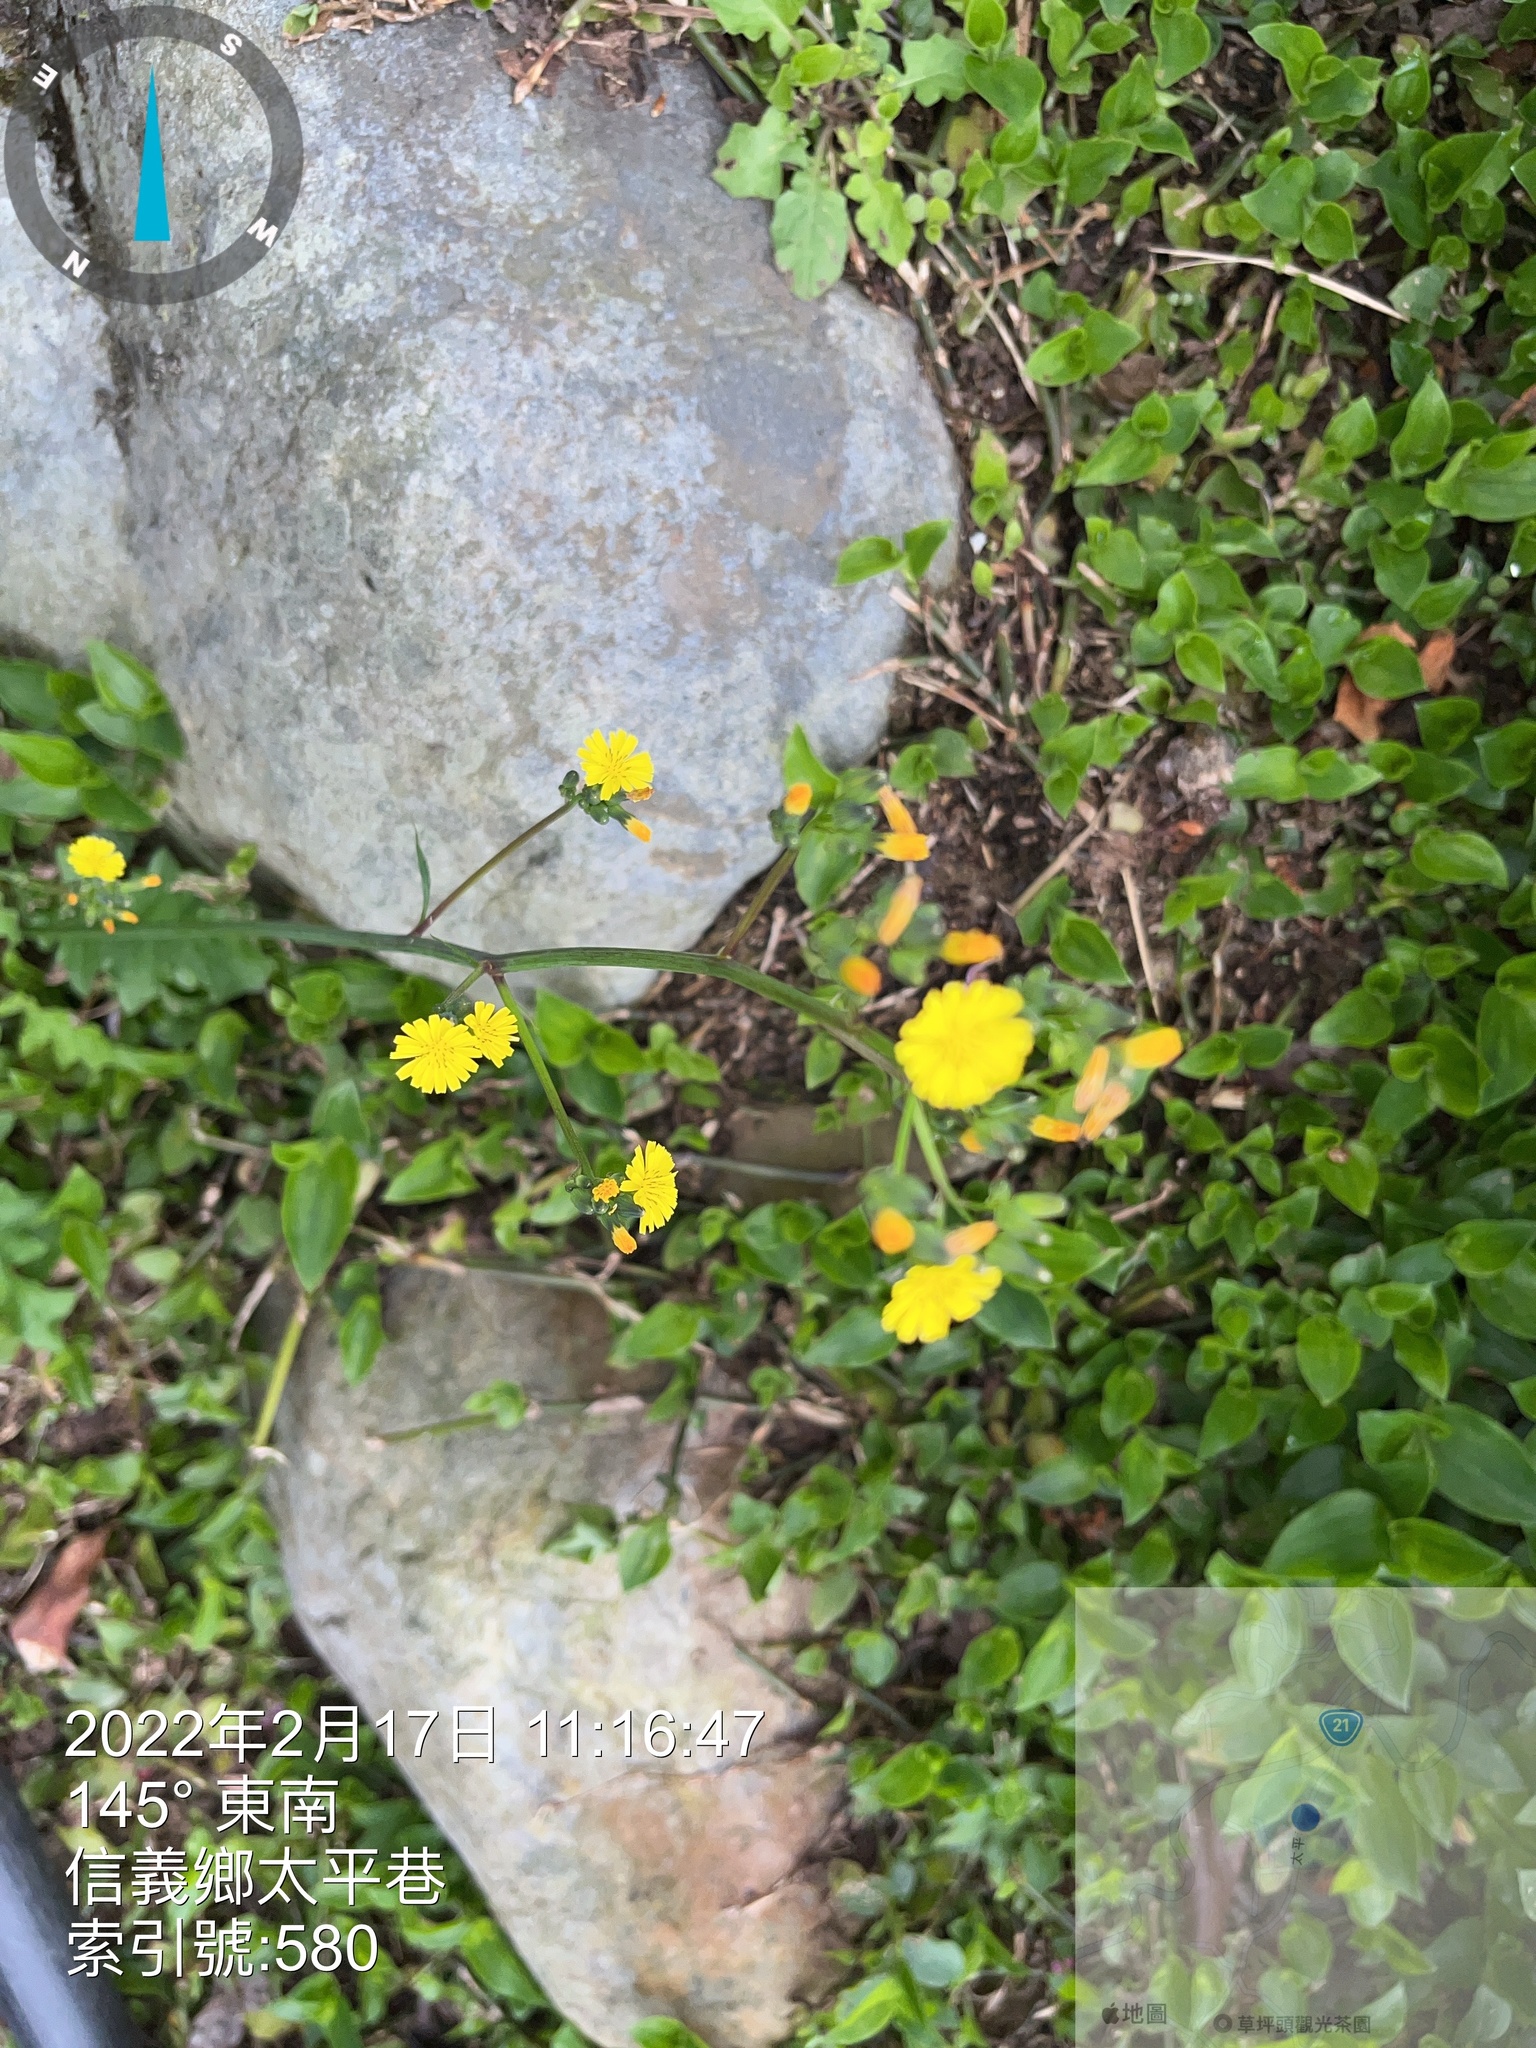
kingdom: Plantae
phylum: Tracheophyta
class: Magnoliopsida
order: Asterales
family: Asteraceae
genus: Youngia
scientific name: Youngia japonica
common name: Oriental false hawksbeard
